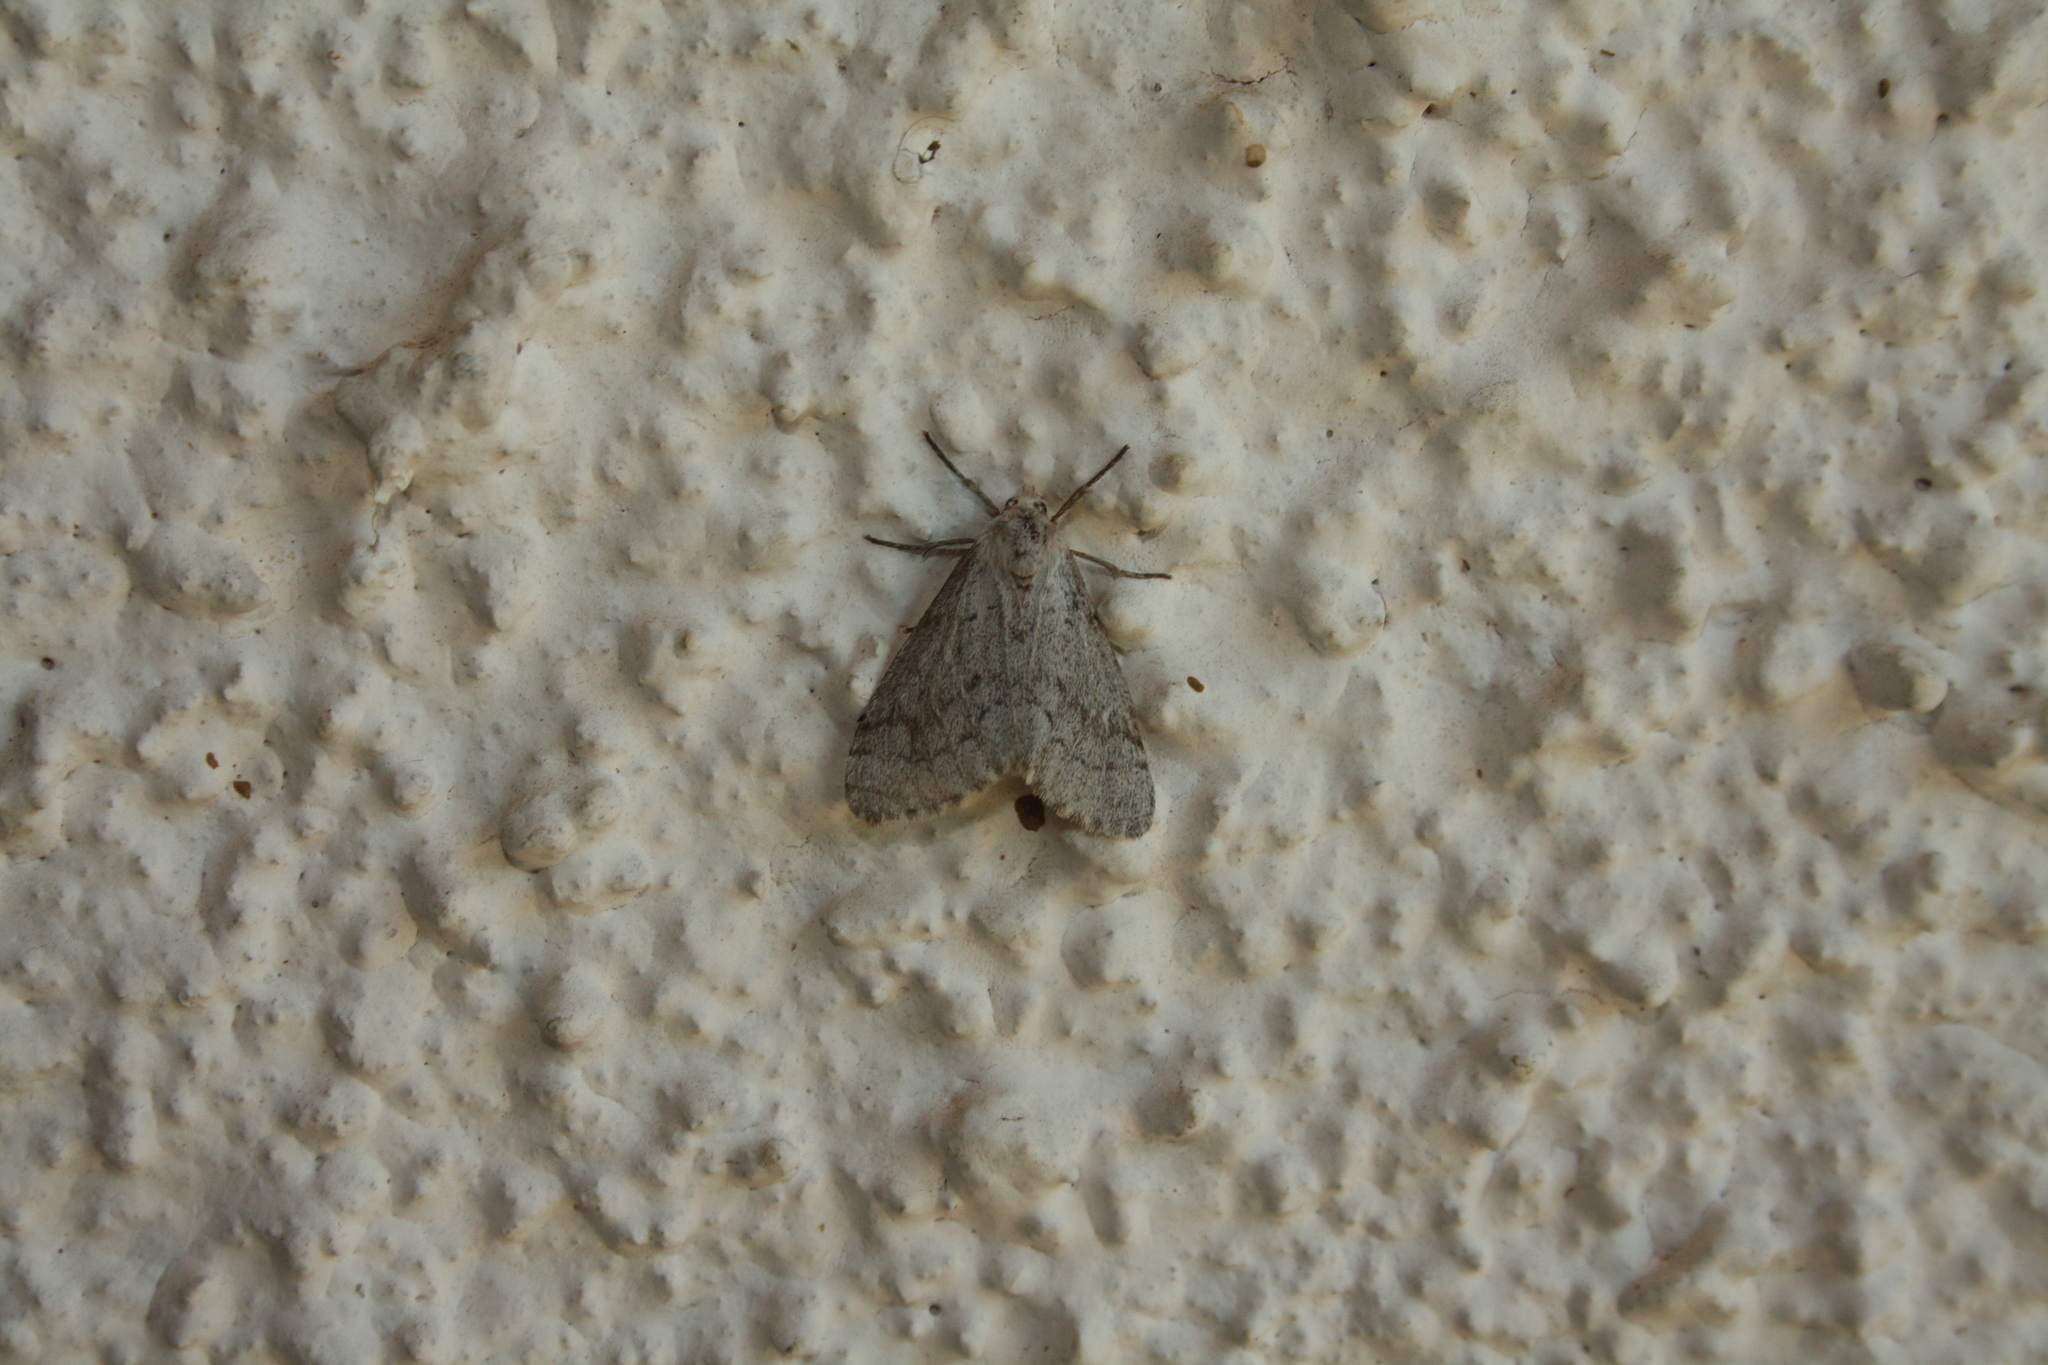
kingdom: Animalia
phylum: Arthropoda
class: Insecta
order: Lepidoptera
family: Erebidae
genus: Ocneria
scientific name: Ocneria
